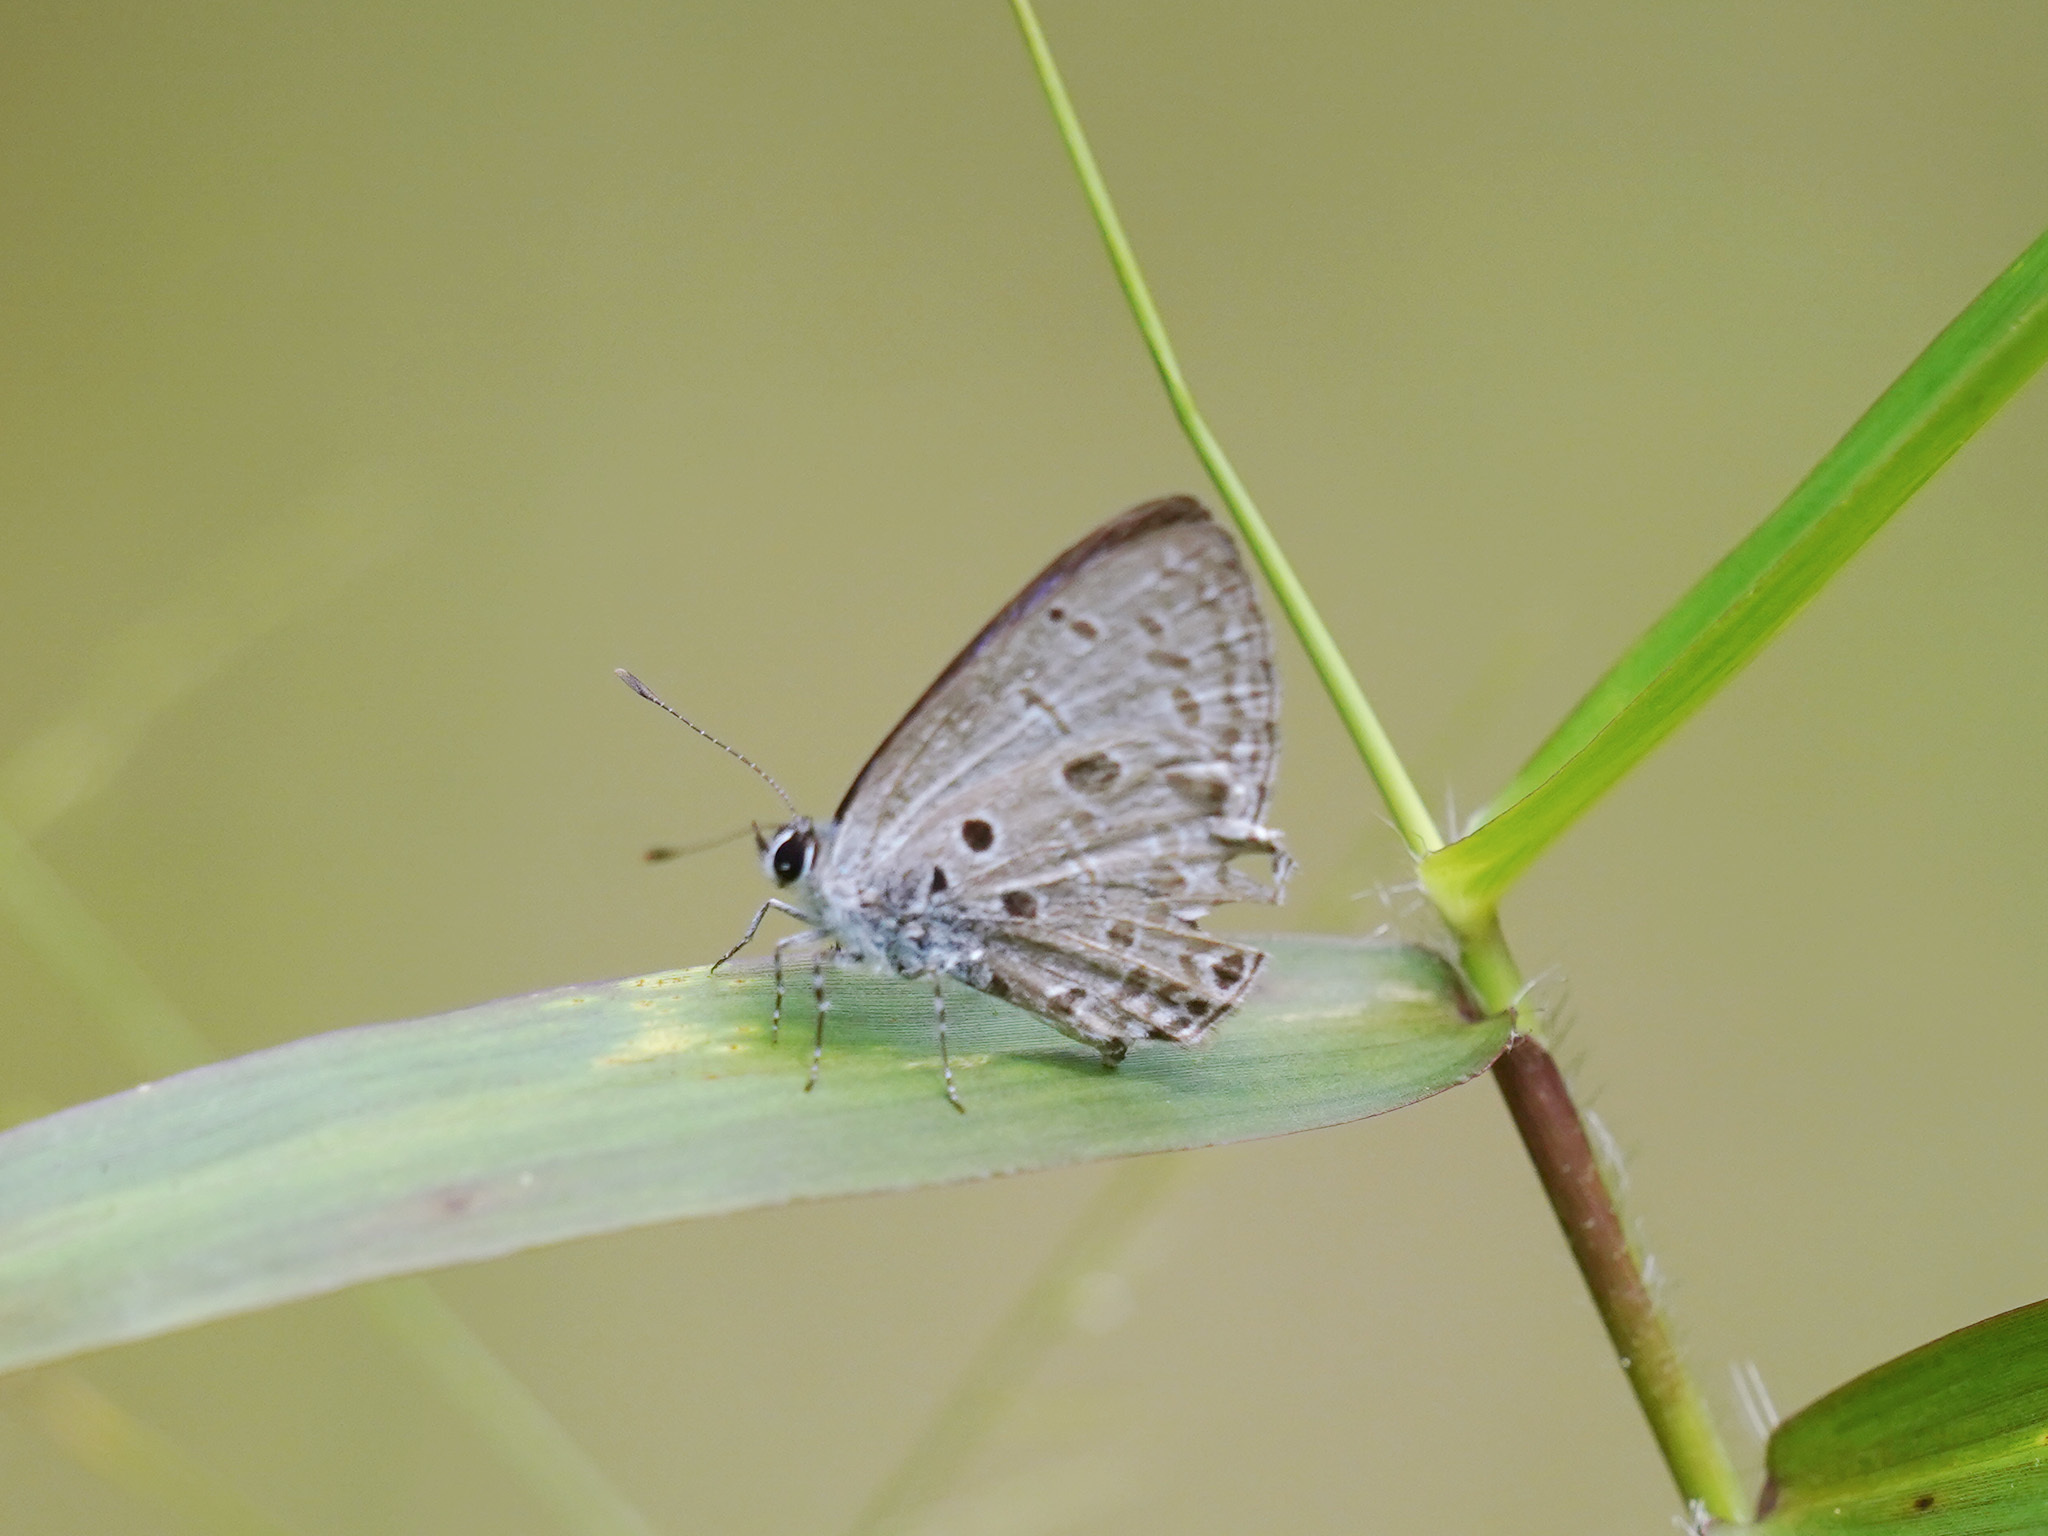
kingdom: Animalia
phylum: Arthropoda
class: Insecta
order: Lepidoptera
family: Lycaenidae
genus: Acytolepis
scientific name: Acytolepis puspa
